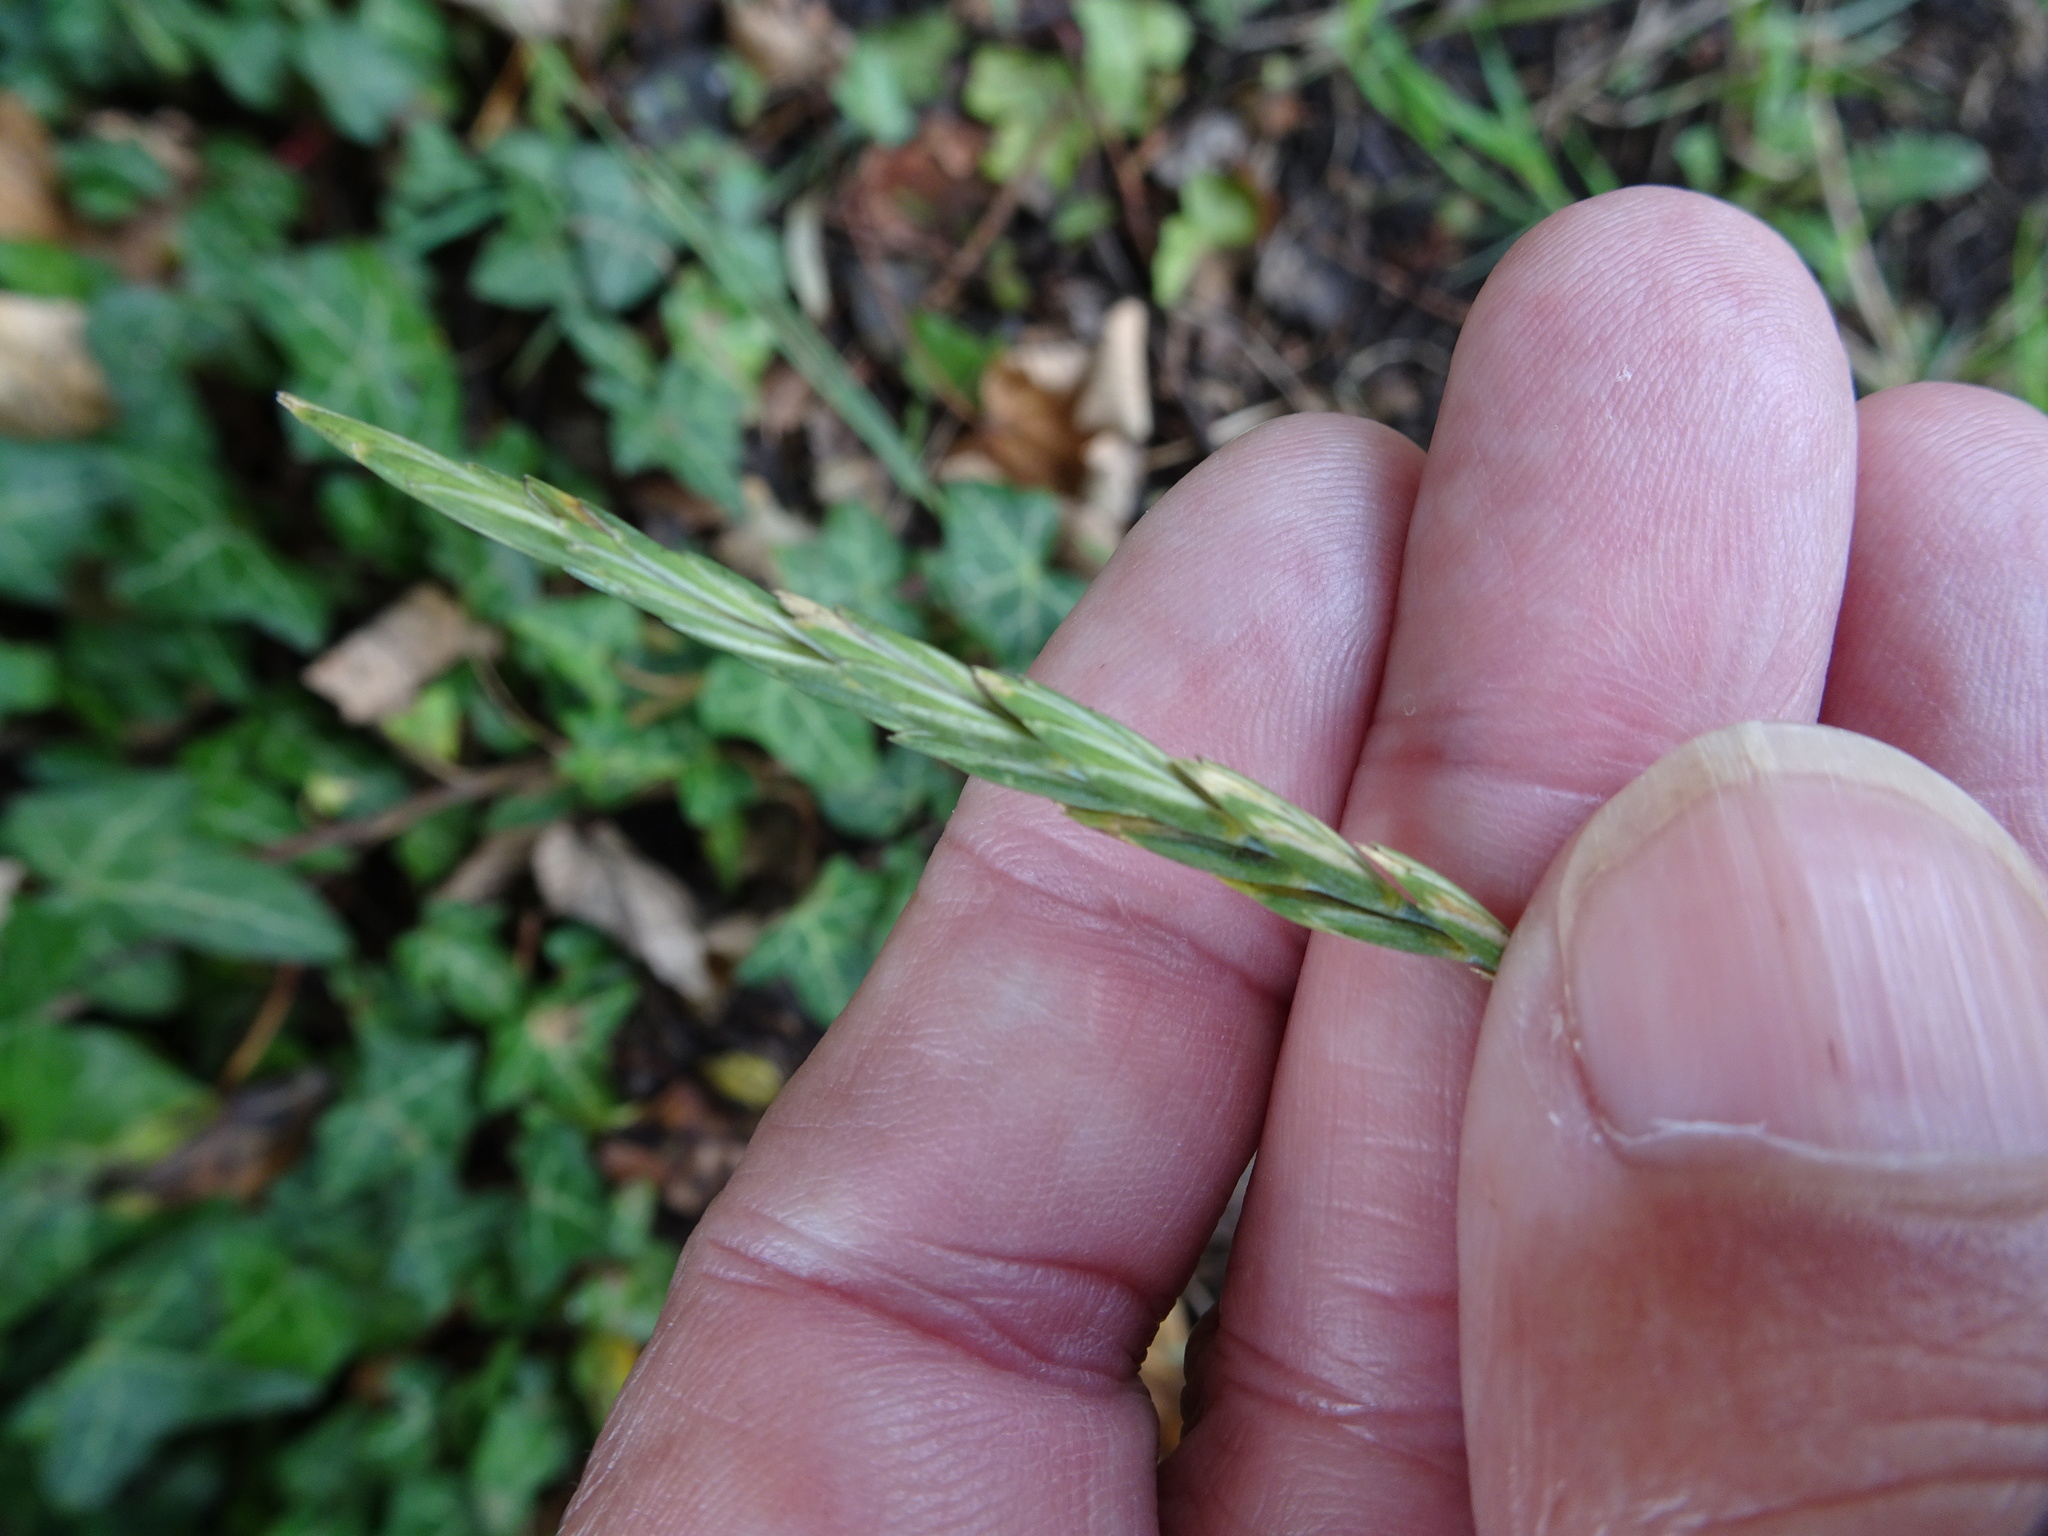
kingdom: Plantae
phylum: Tracheophyta
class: Liliopsida
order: Poales
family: Poaceae
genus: Elymus
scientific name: Elymus repens
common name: Quackgrass
